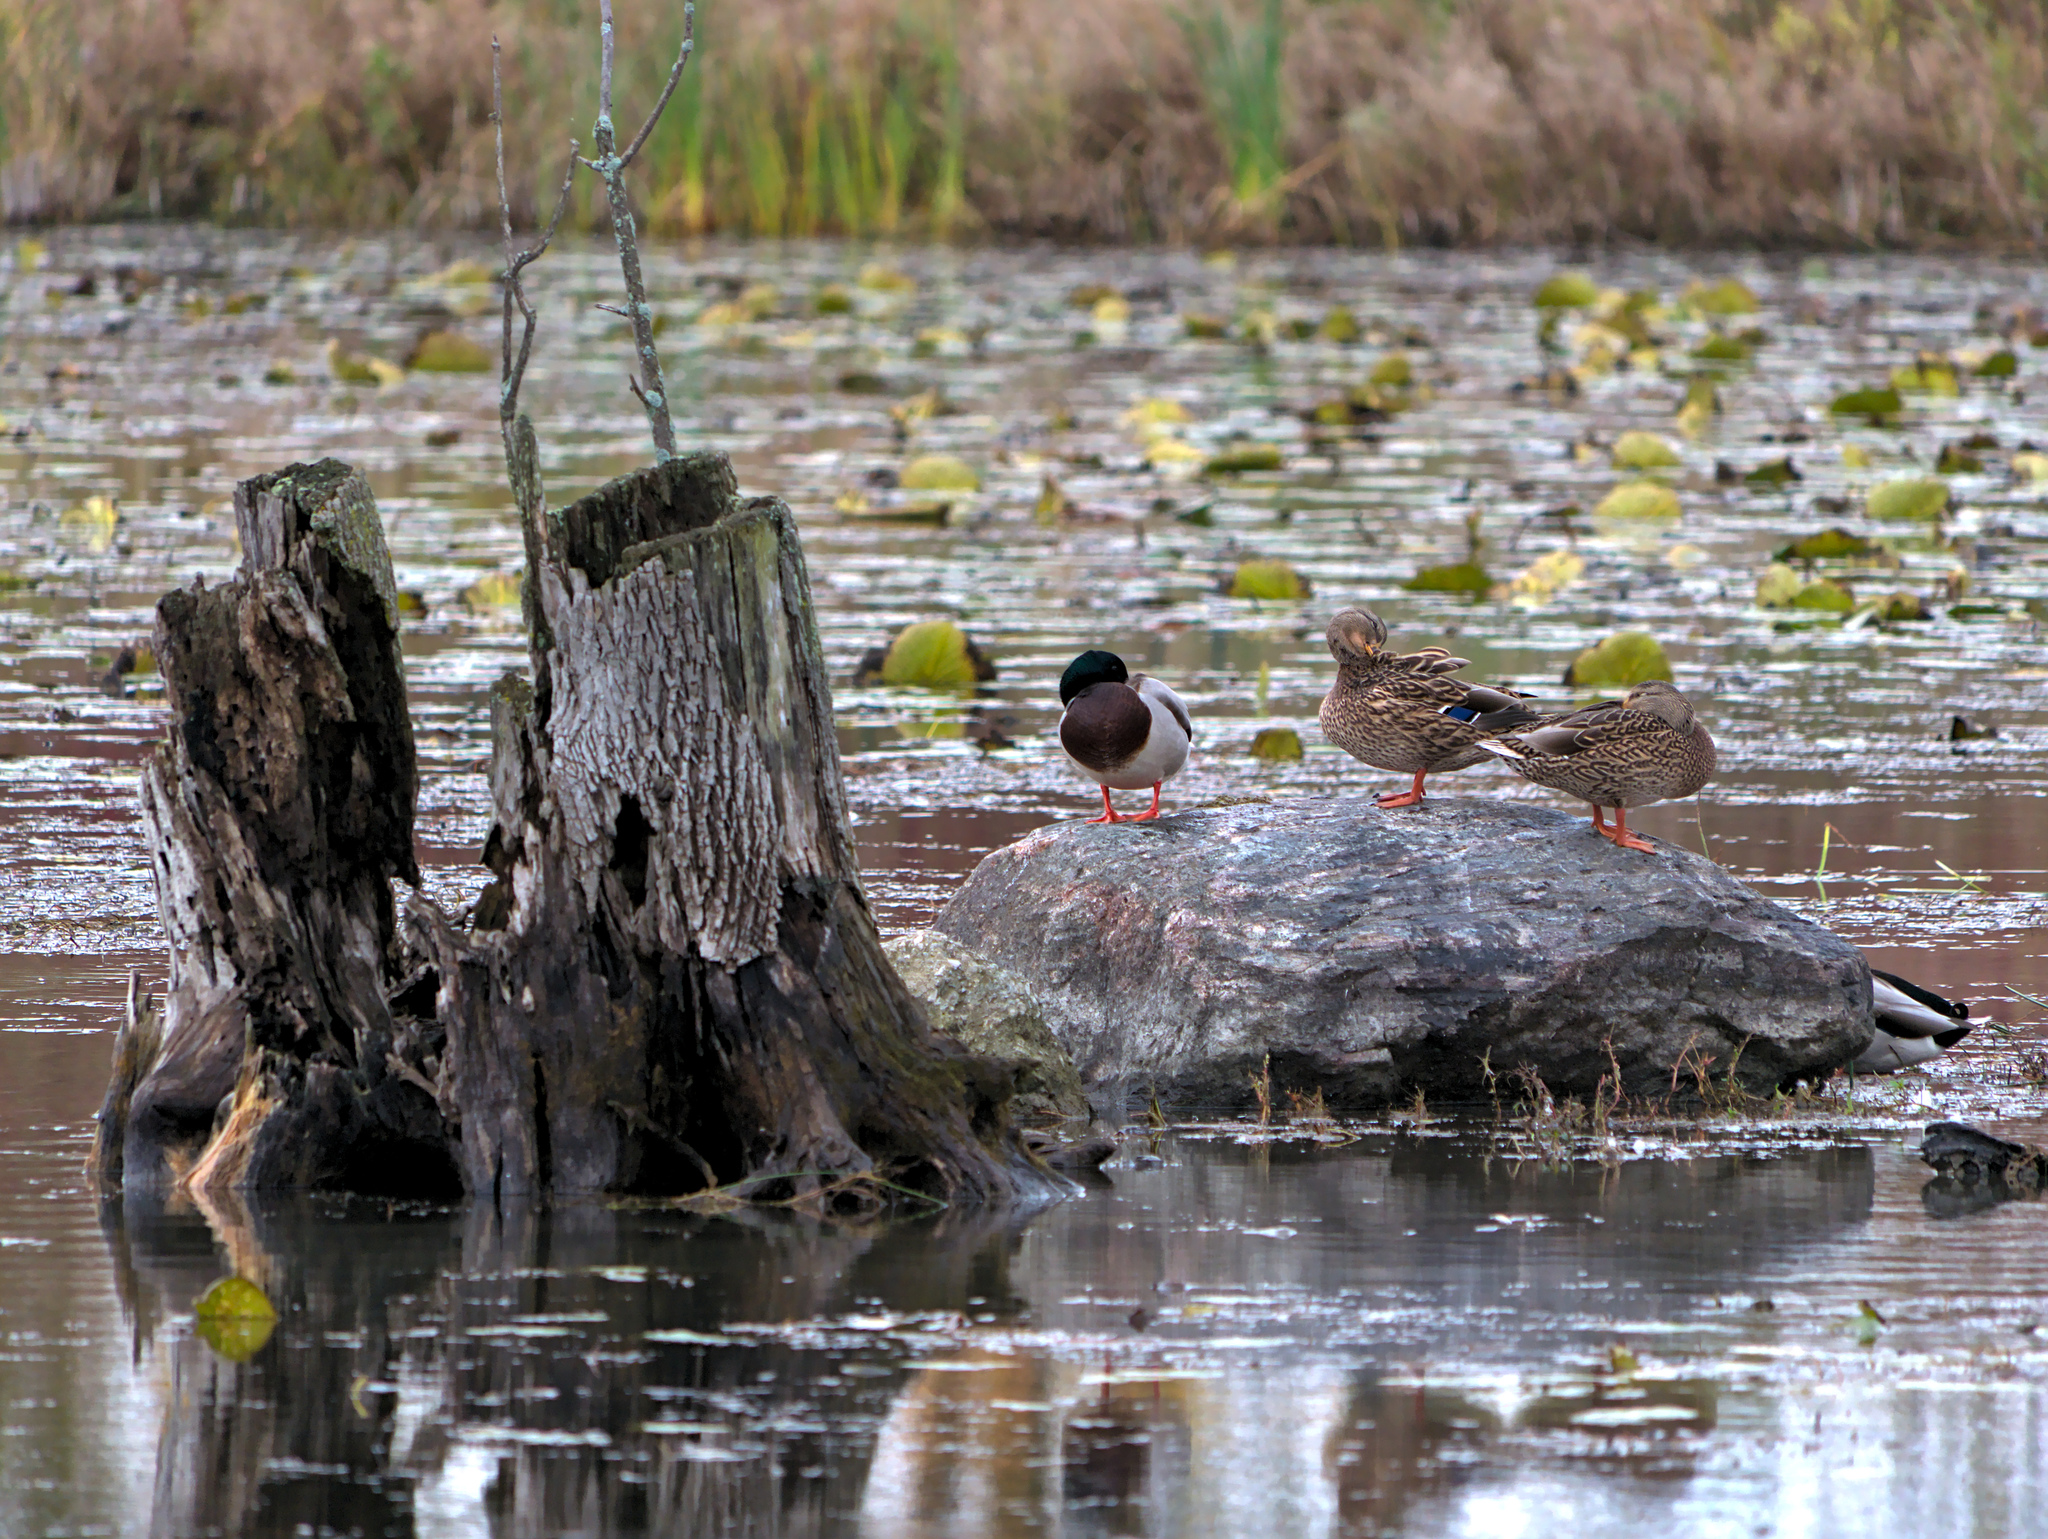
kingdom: Animalia
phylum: Chordata
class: Aves
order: Anseriformes
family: Anatidae
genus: Anas
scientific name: Anas platyrhynchos
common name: Mallard
